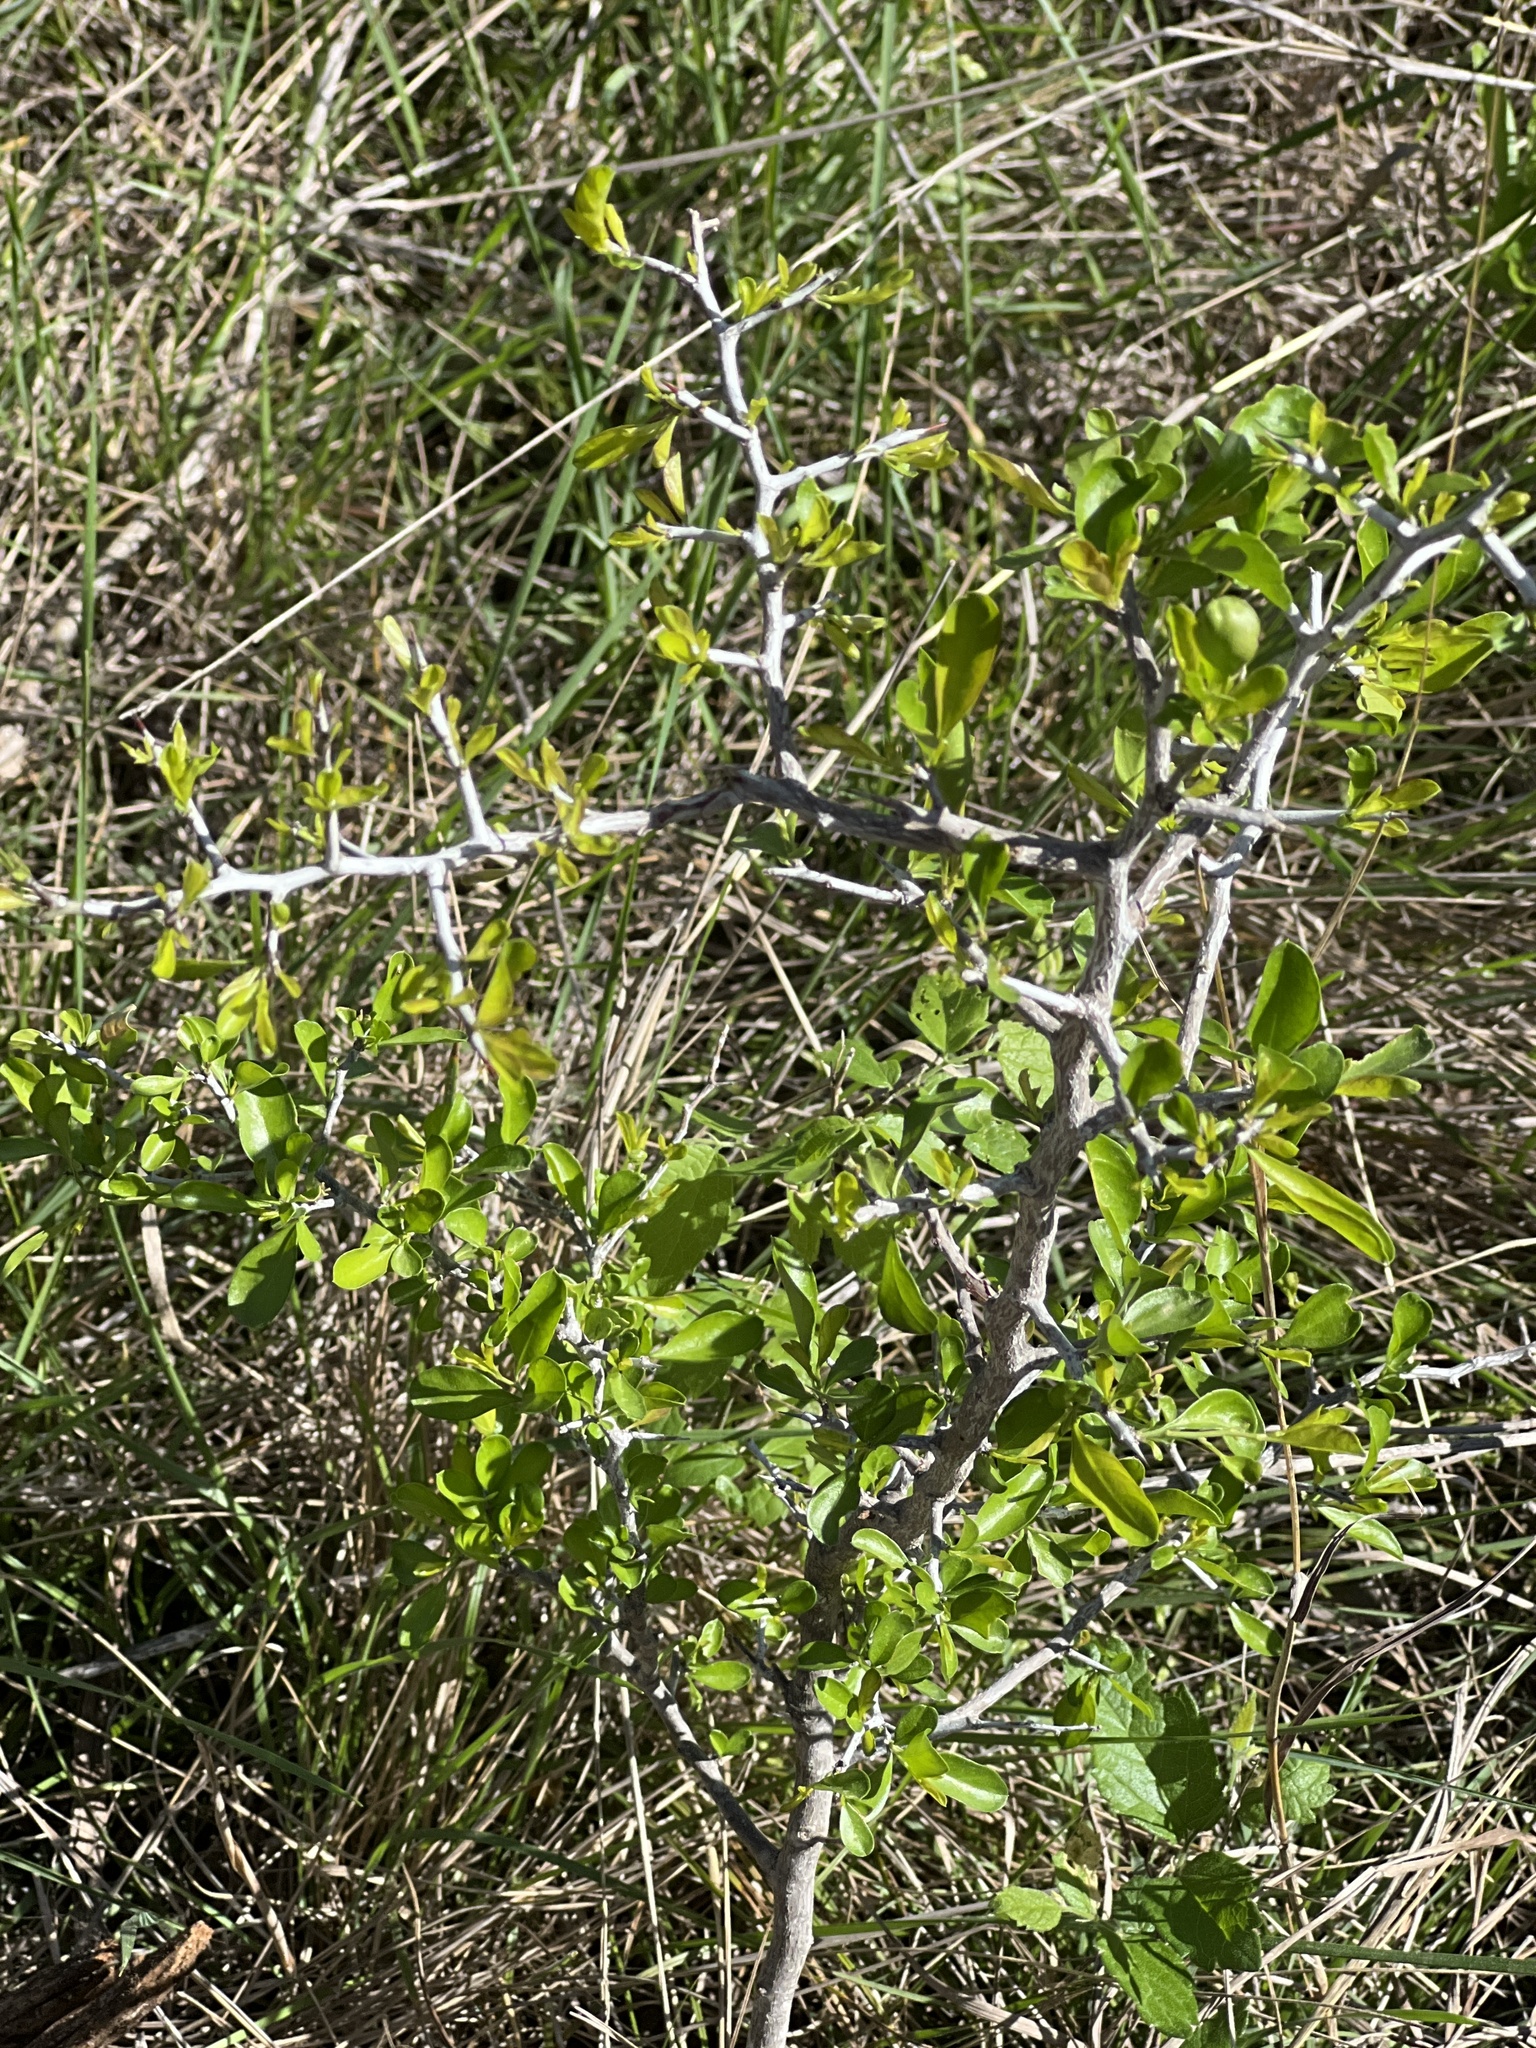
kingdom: Plantae
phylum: Tracheophyta
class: Magnoliopsida
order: Rosales
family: Rhamnaceae
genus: Condalia
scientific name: Condalia hookeri
